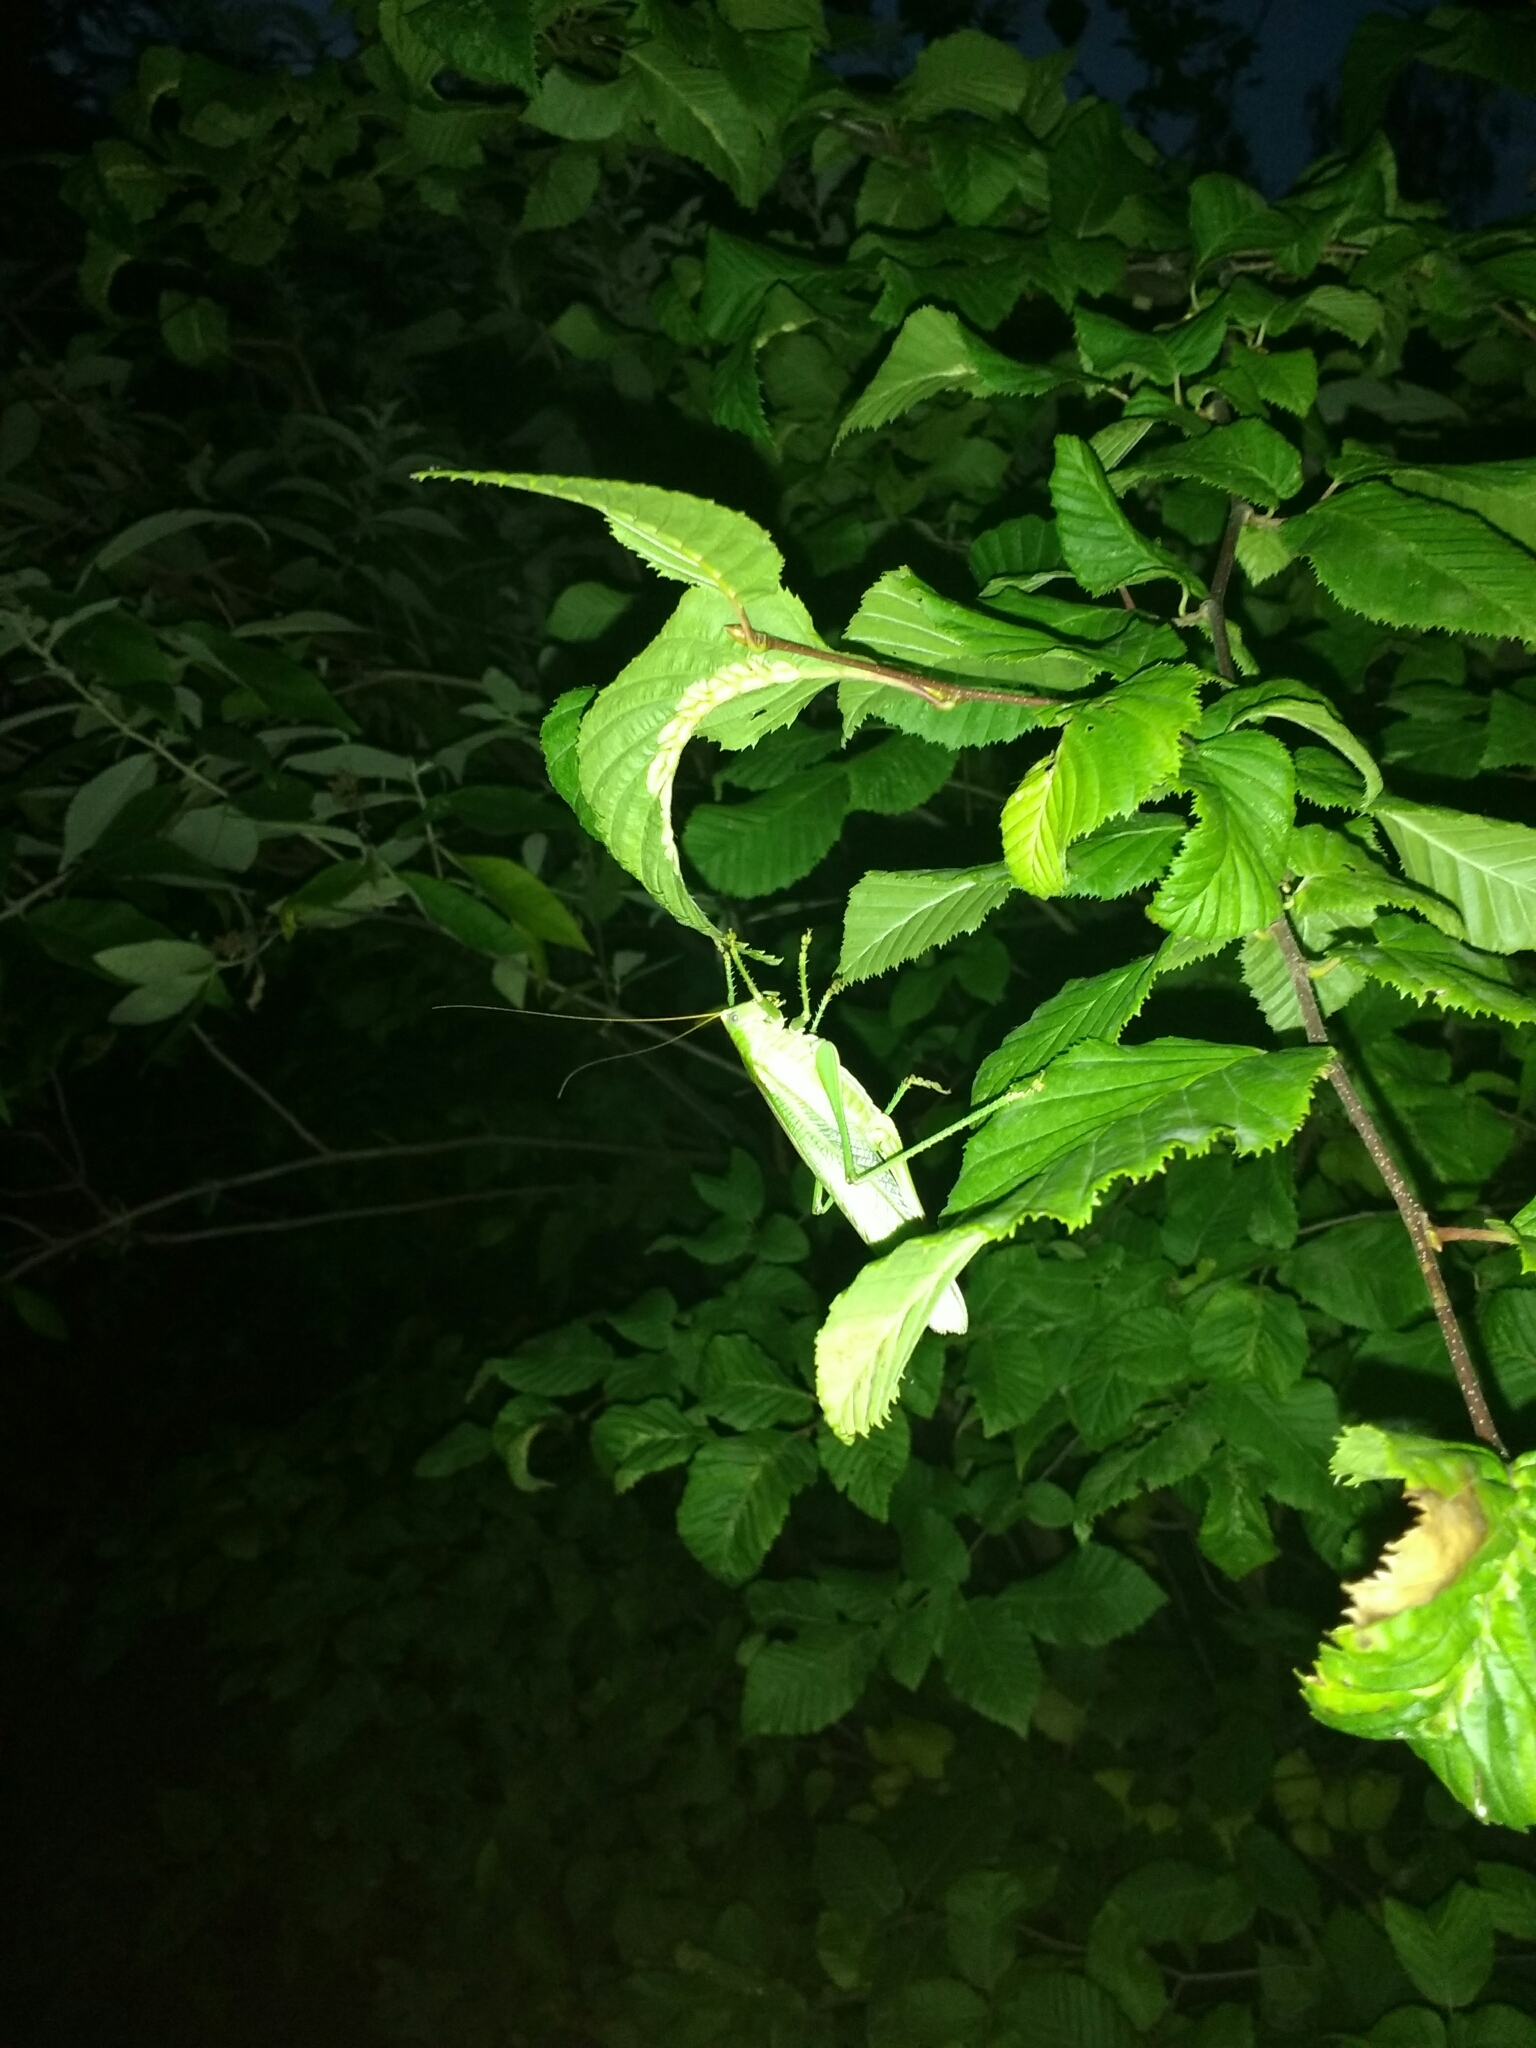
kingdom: Animalia
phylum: Arthropoda
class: Insecta
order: Orthoptera
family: Tettigoniidae
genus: Tettigonia
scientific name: Tettigonia viridissima
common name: Great green bush-cricket
